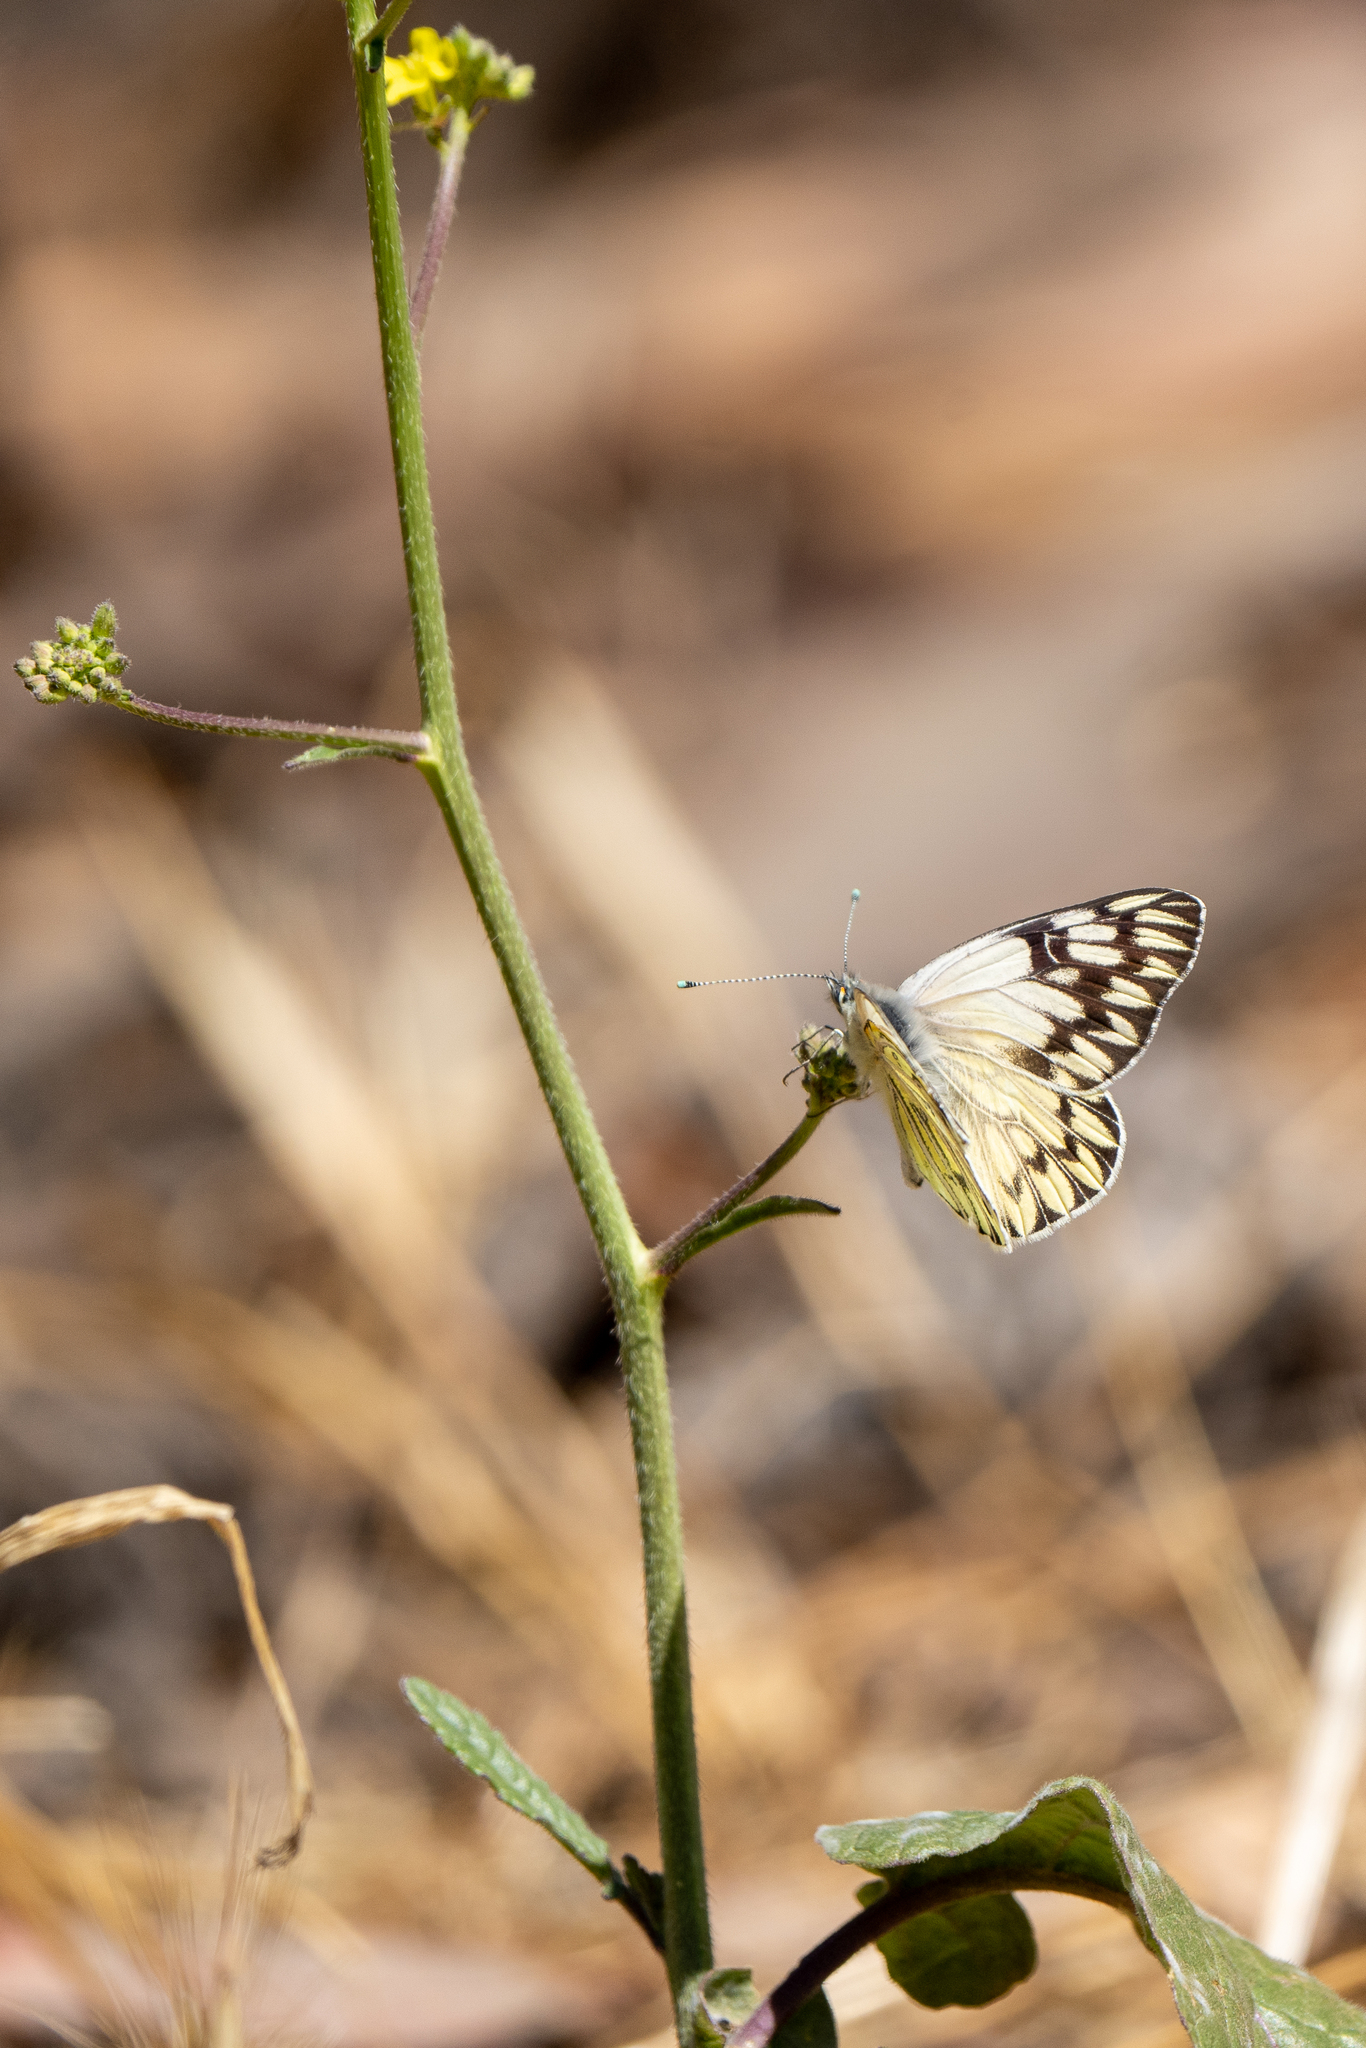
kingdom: Animalia
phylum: Arthropoda
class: Insecta
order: Lepidoptera
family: Pieridae
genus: Tatochila
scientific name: Tatochila autodice
